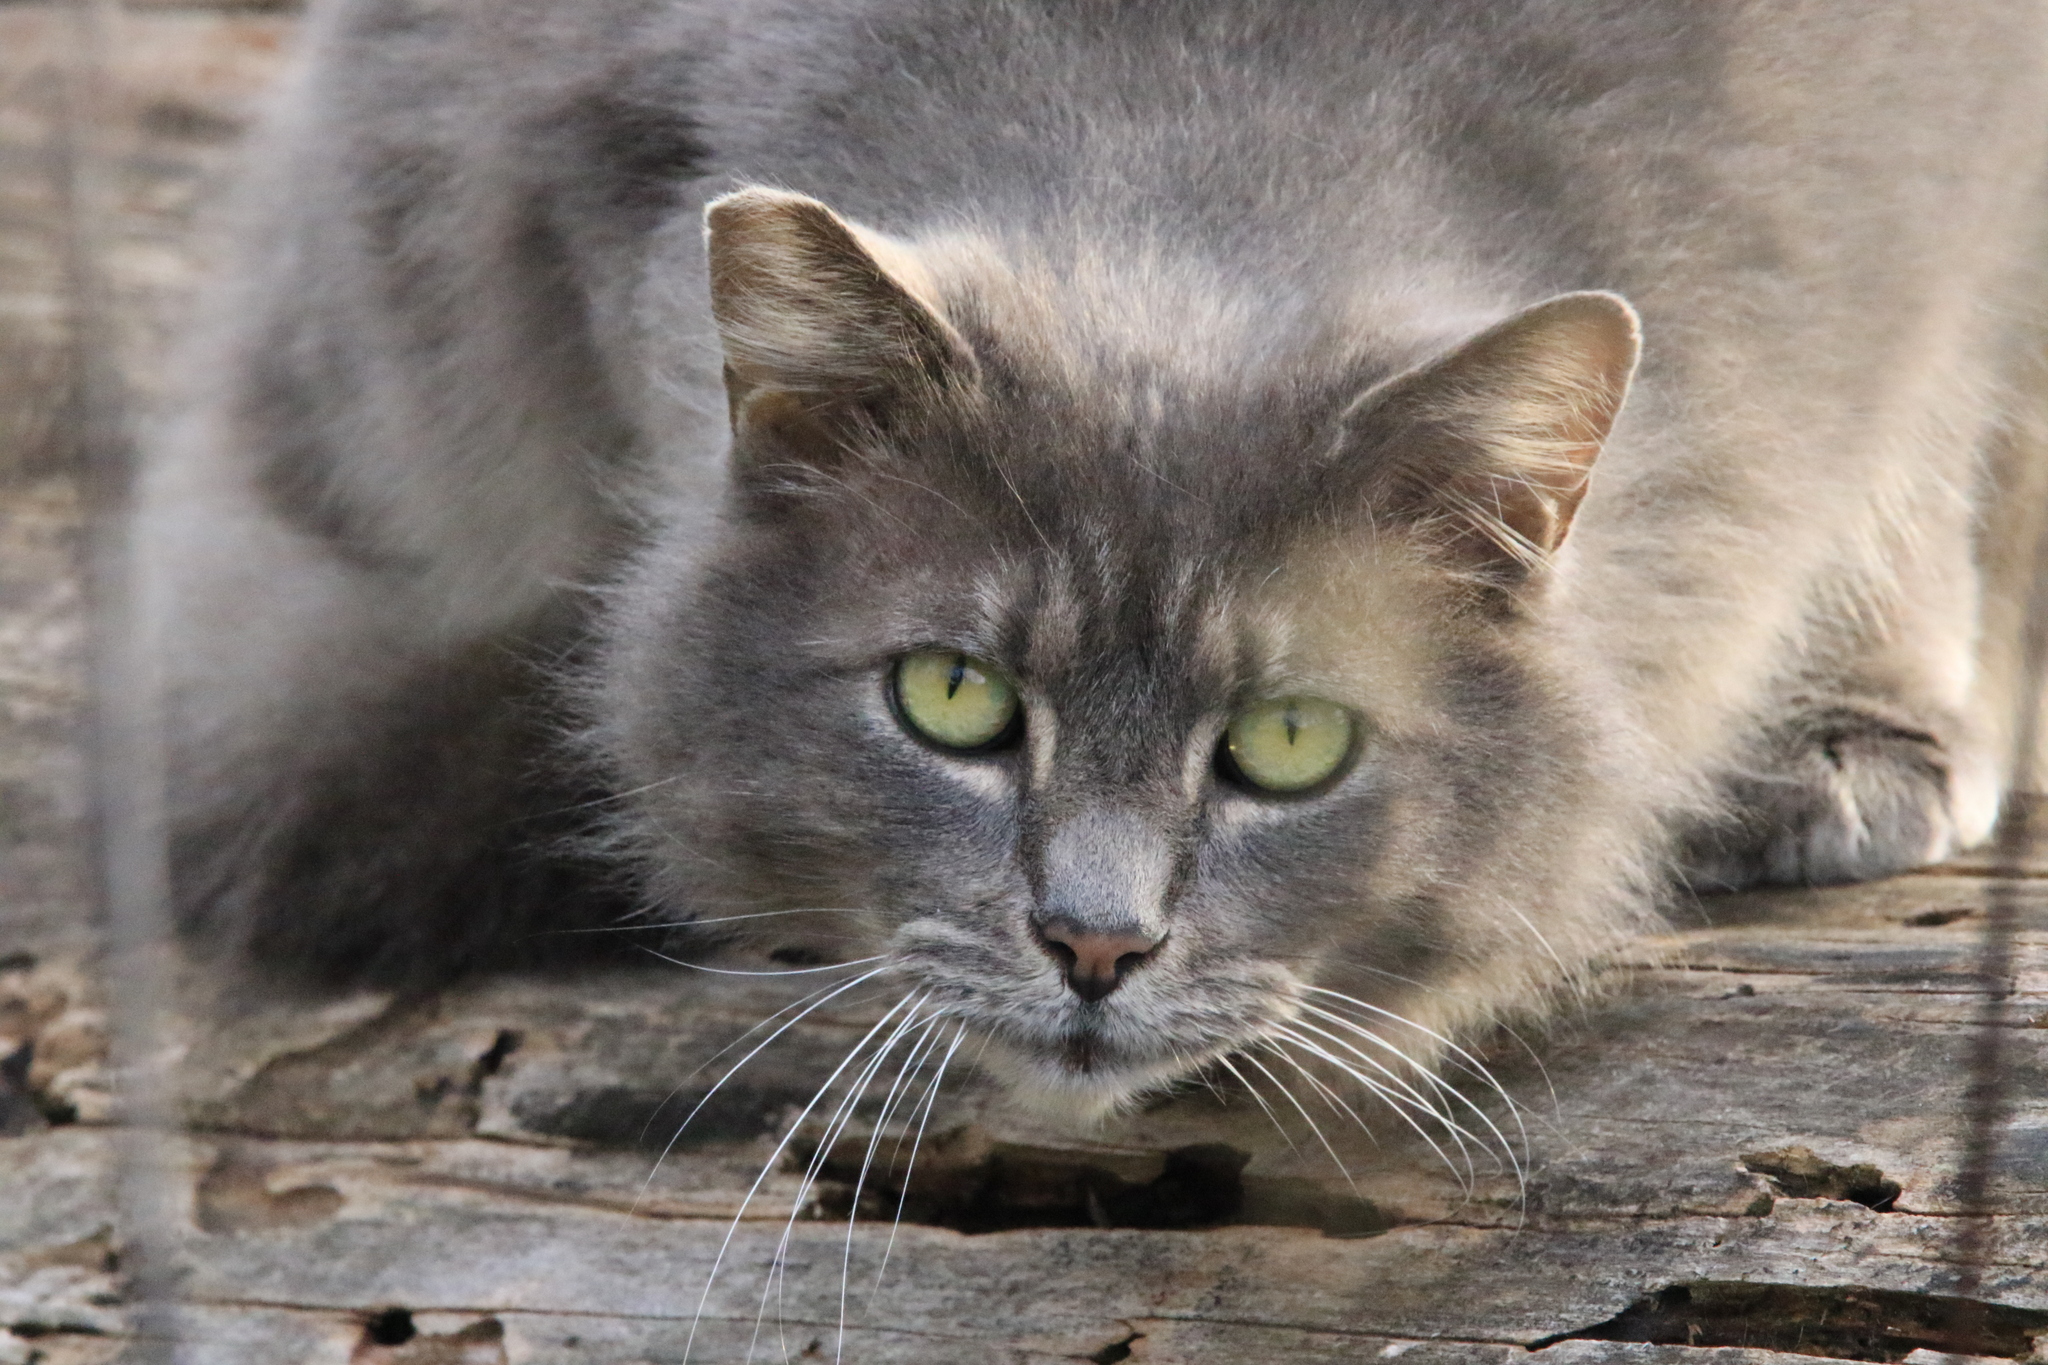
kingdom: Animalia
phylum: Chordata
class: Mammalia
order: Carnivora
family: Felidae
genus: Felis
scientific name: Felis catus
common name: Domestic cat
